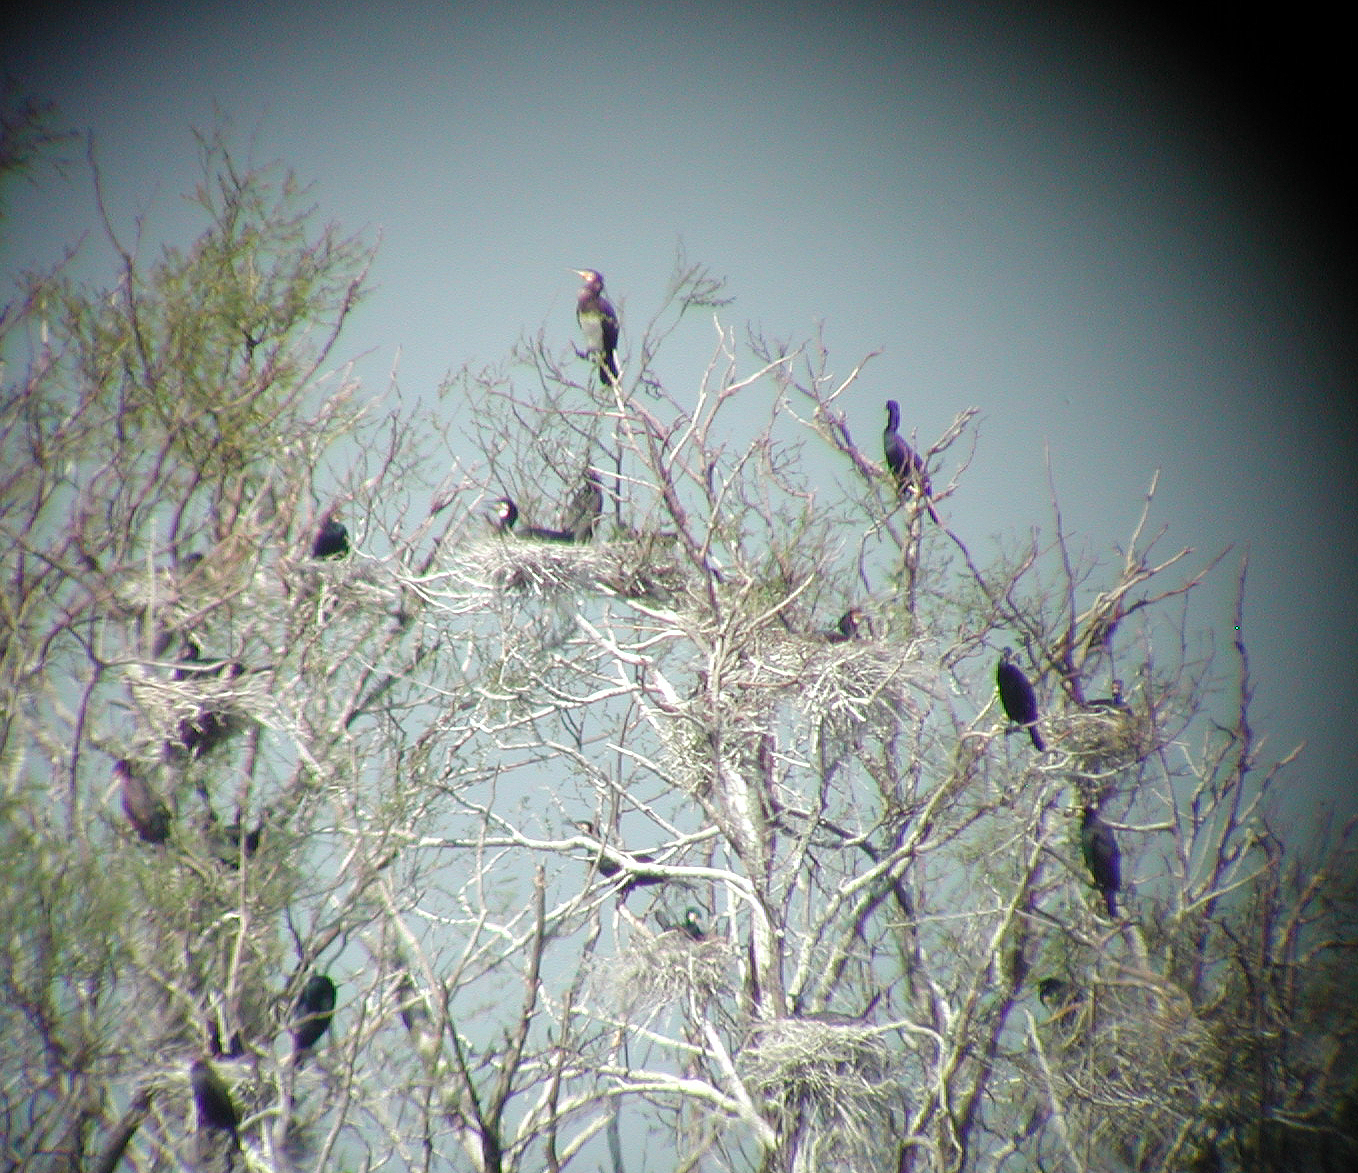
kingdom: Animalia
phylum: Chordata
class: Aves
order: Suliformes
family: Phalacrocoracidae
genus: Phalacrocorax
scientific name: Phalacrocorax carbo
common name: Great cormorant
